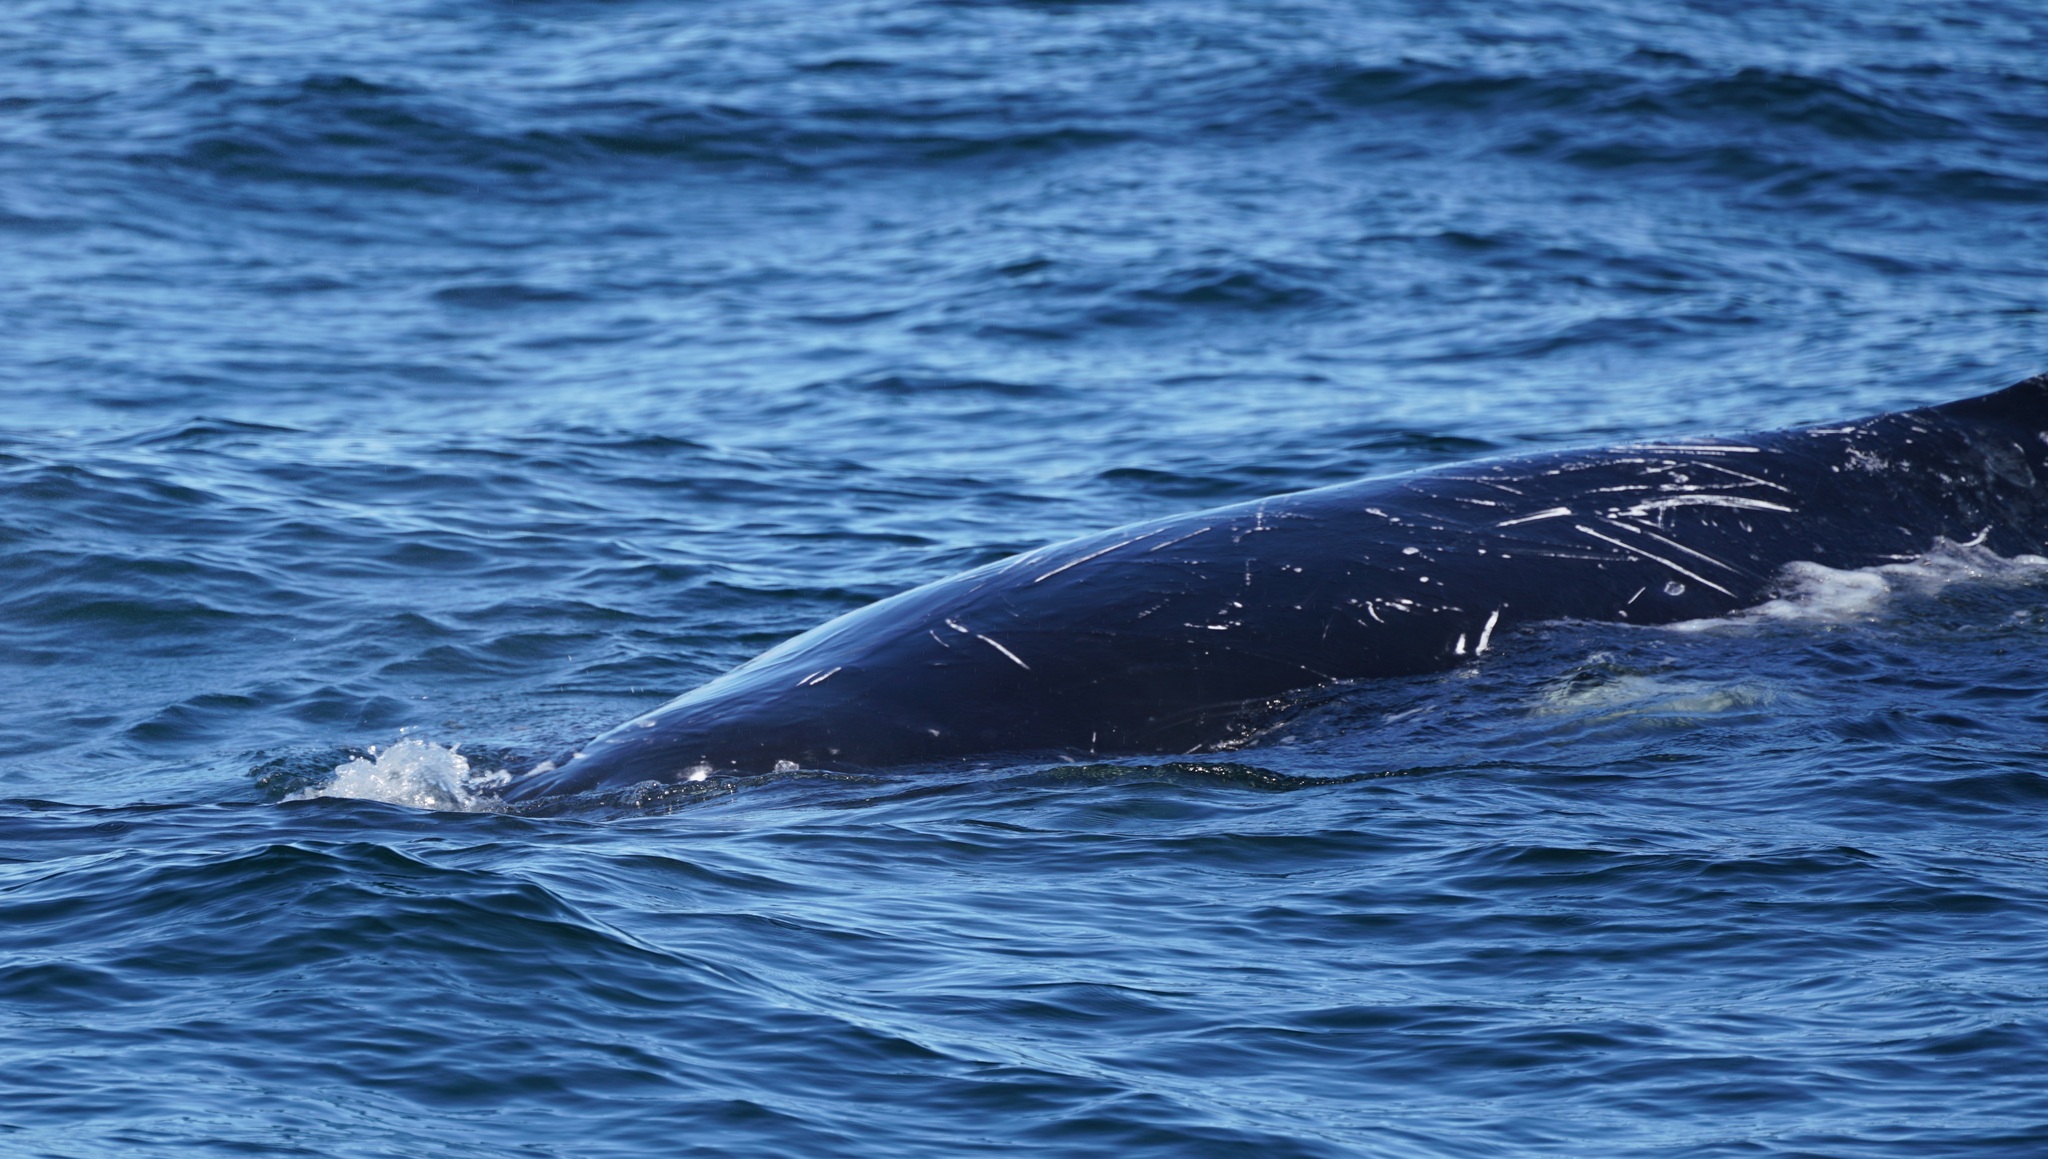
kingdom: Animalia
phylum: Chordata
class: Mammalia
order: Cetacea
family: Balaenopteridae
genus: Megaptera
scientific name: Megaptera novaeangliae
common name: Humpback whale
